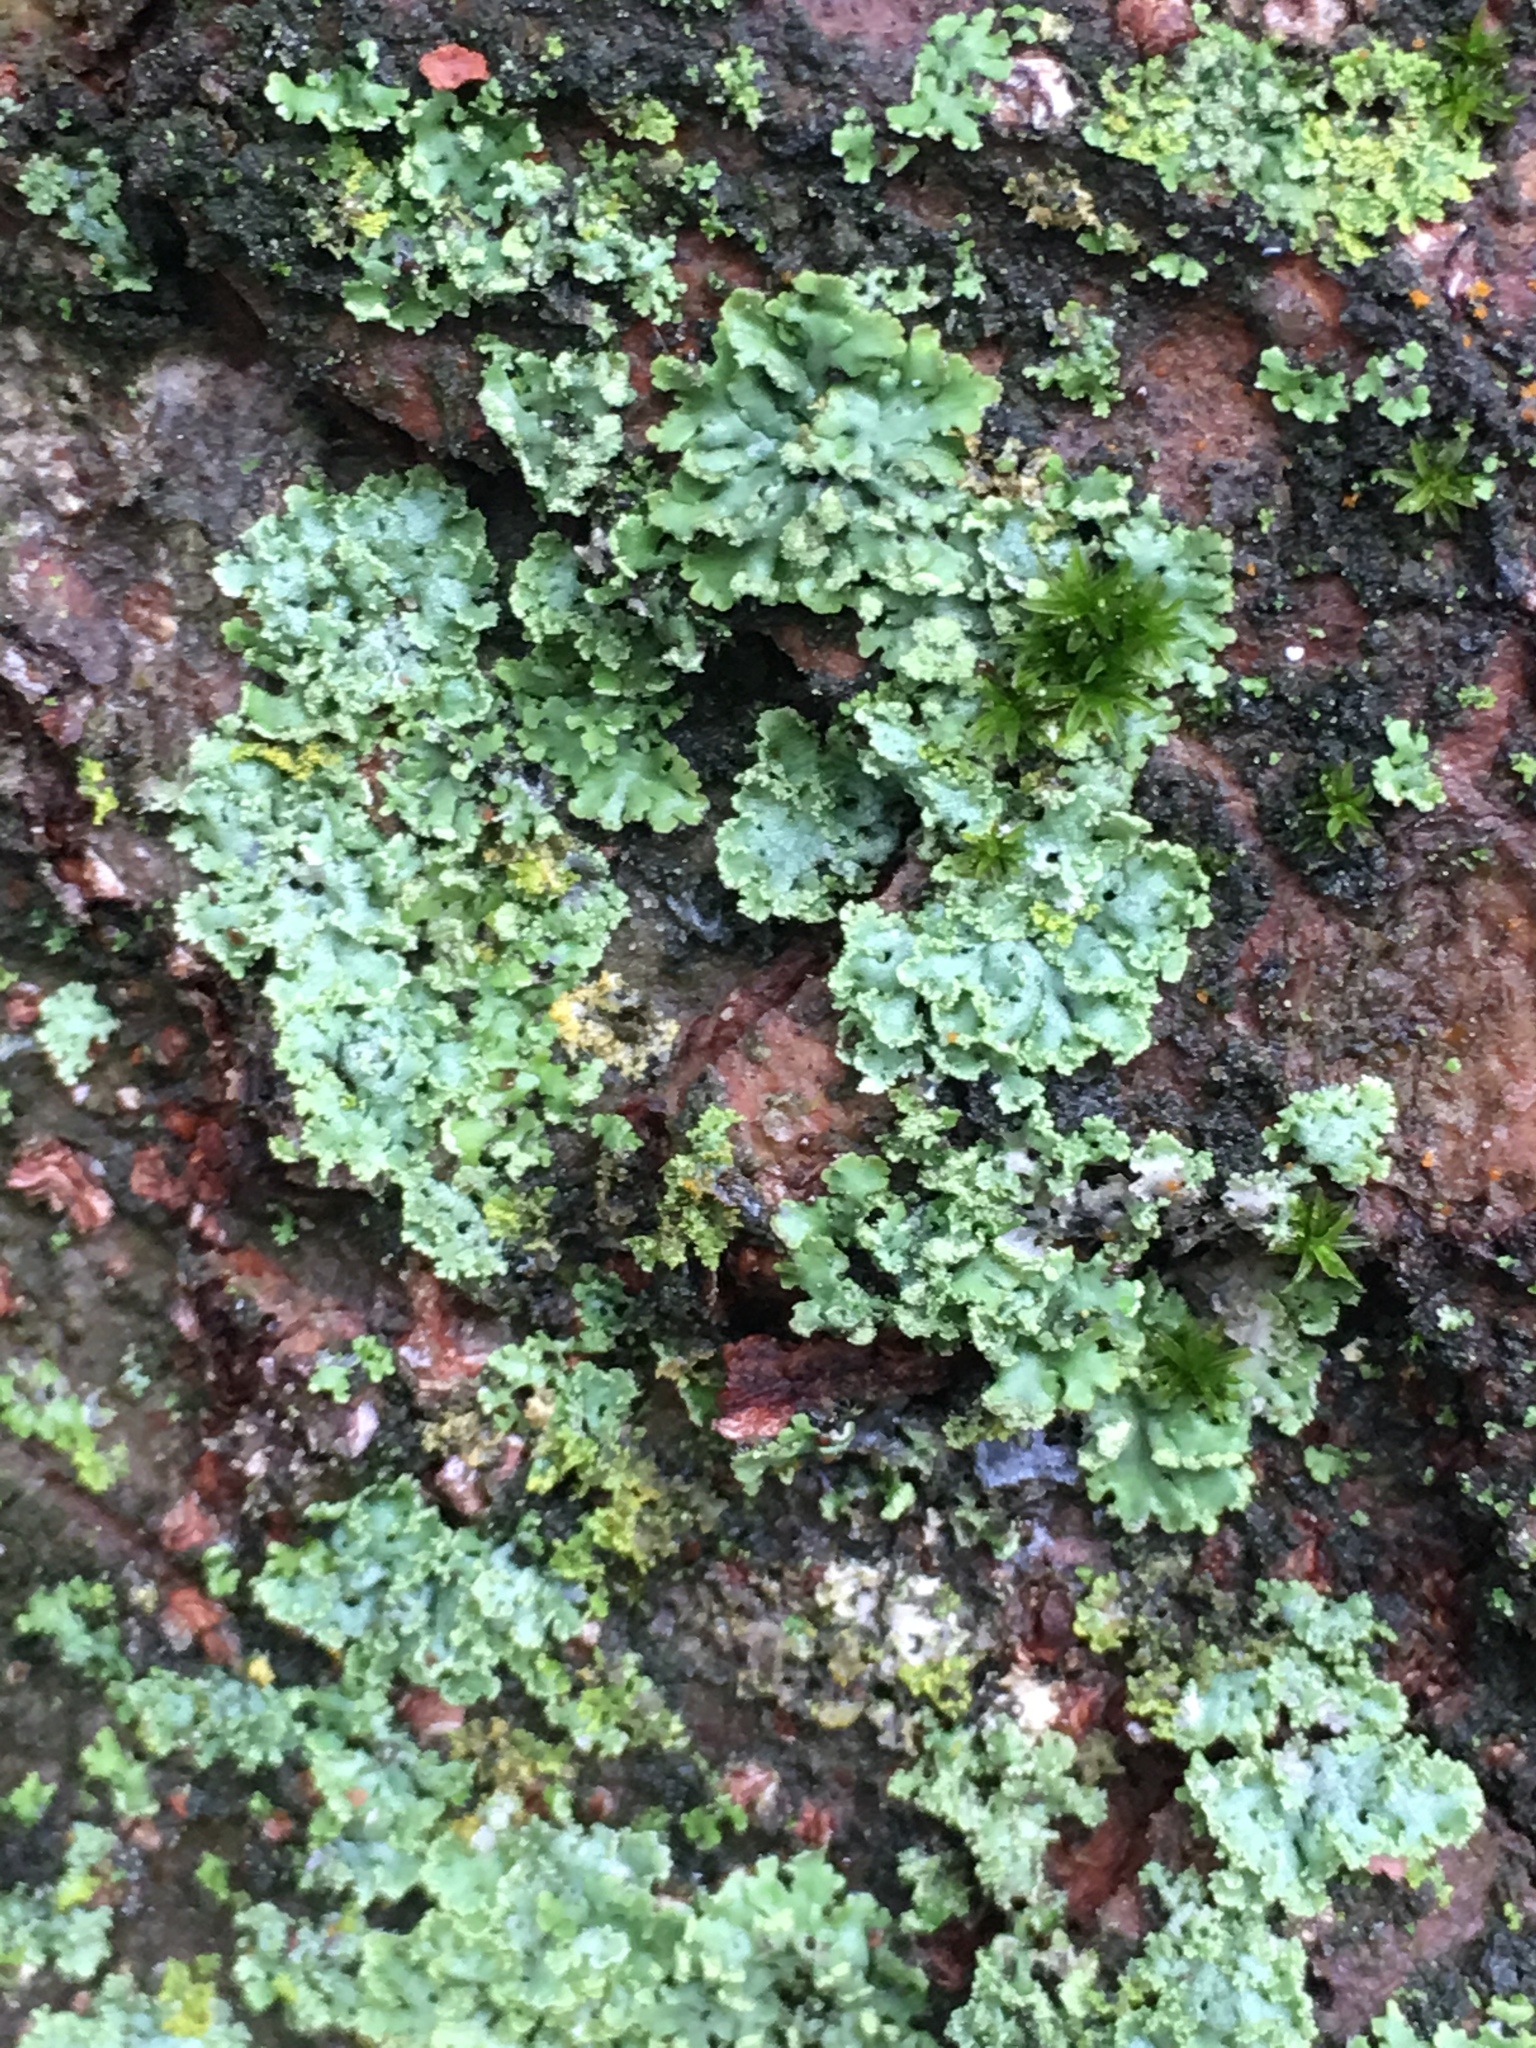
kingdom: Fungi
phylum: Ascomycota
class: Lecanoromycetes
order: Caliciales
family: Physciaceae
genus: Physcia
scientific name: Physcia millegrana
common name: Rosette lichen
